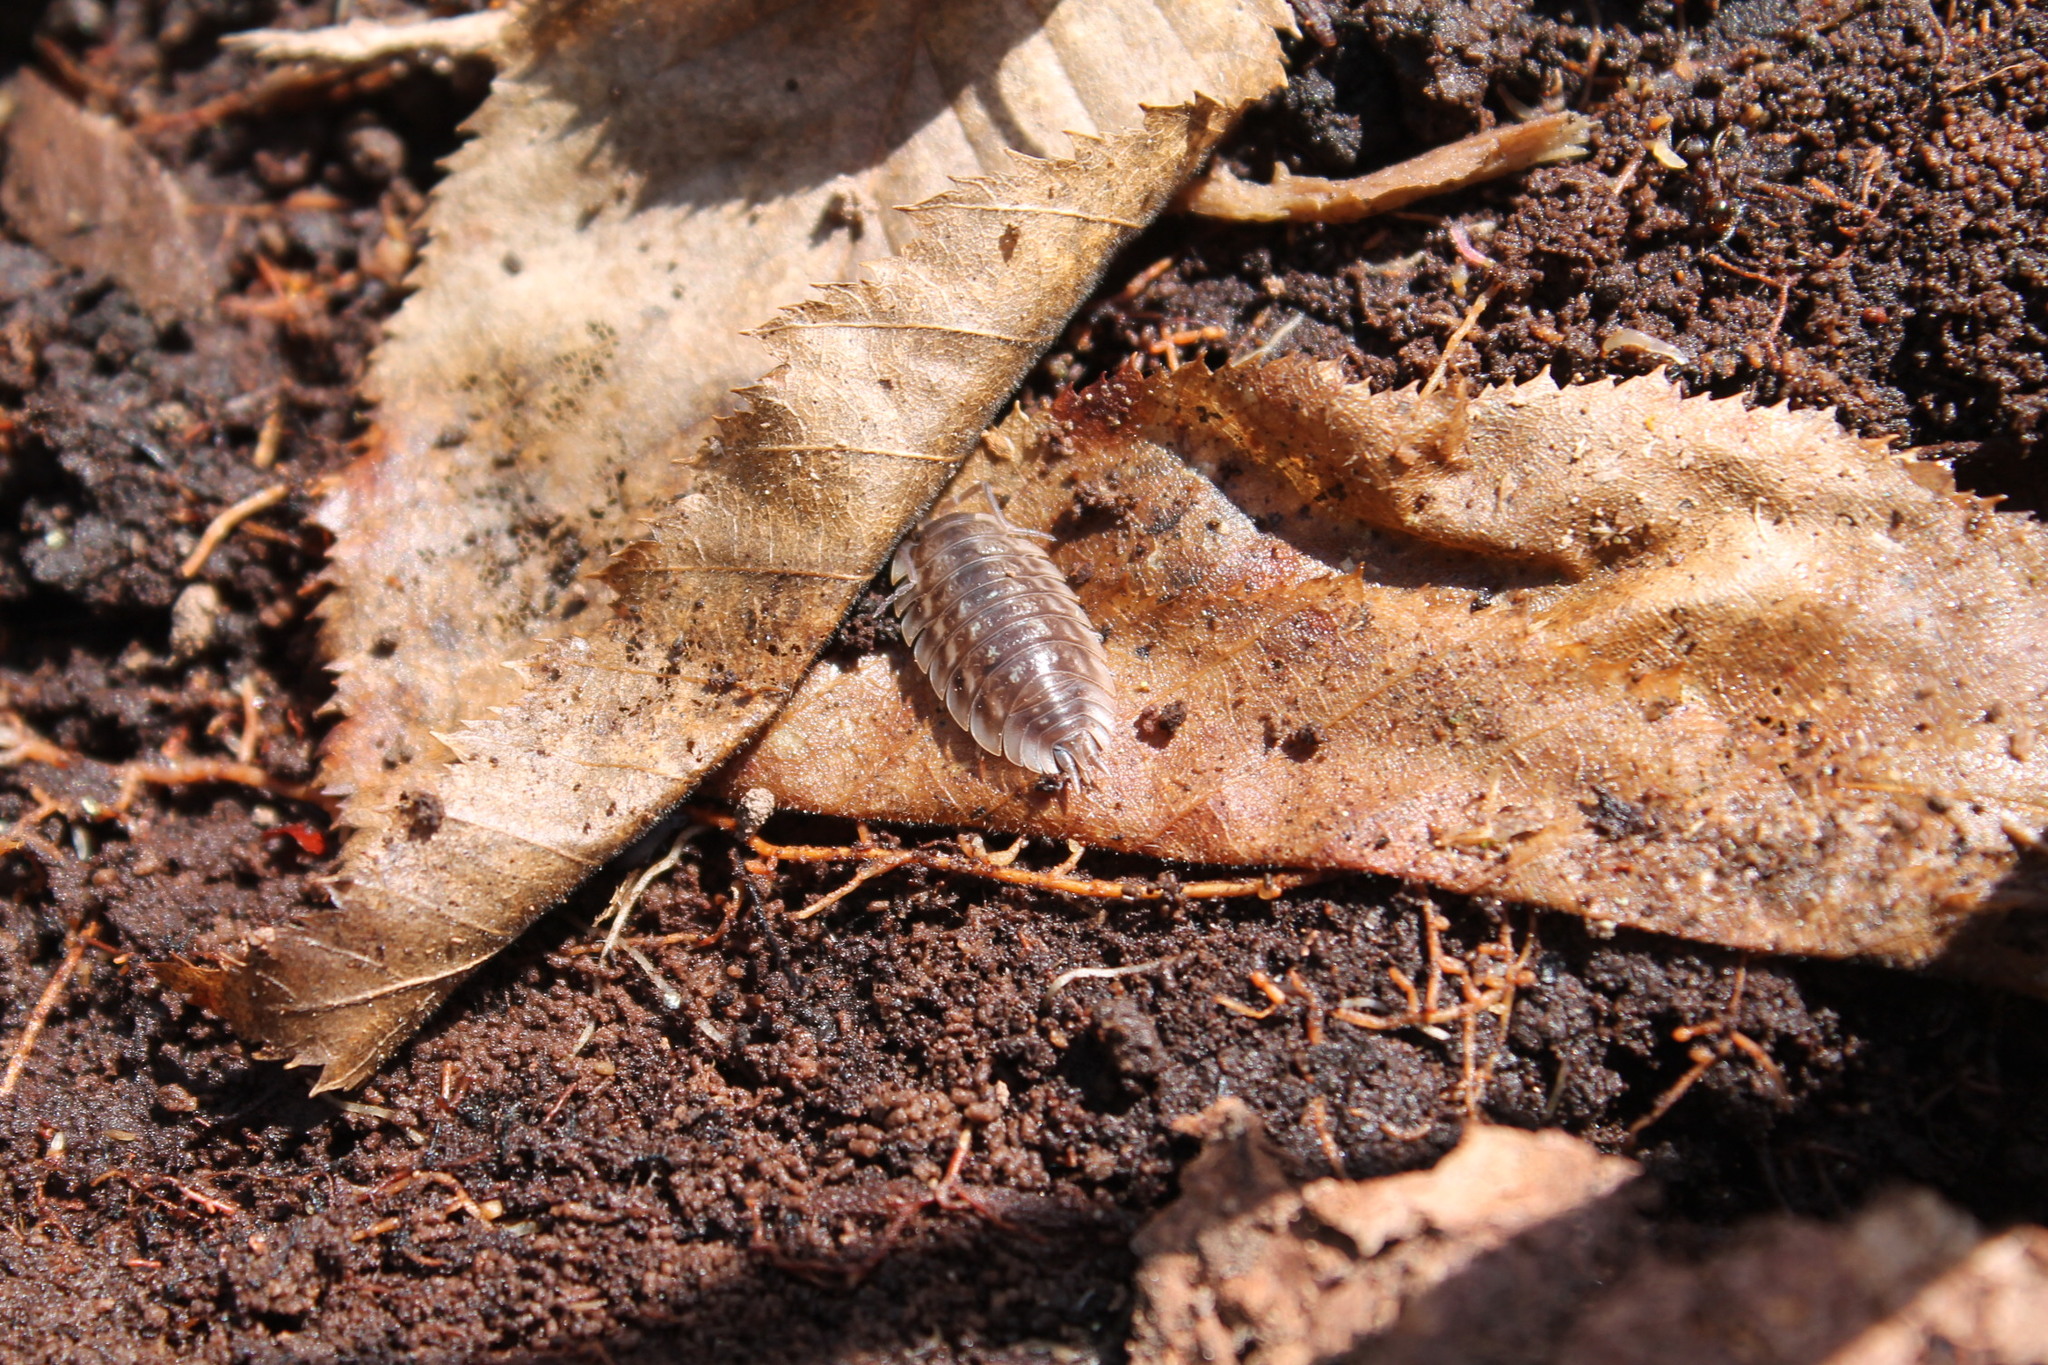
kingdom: Animalia
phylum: Arthropoda
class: Malacostraca
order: Isopoda
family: Oniscidae
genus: Oniscus
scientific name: Oniscus asellus
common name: Common shiny woodlouse
